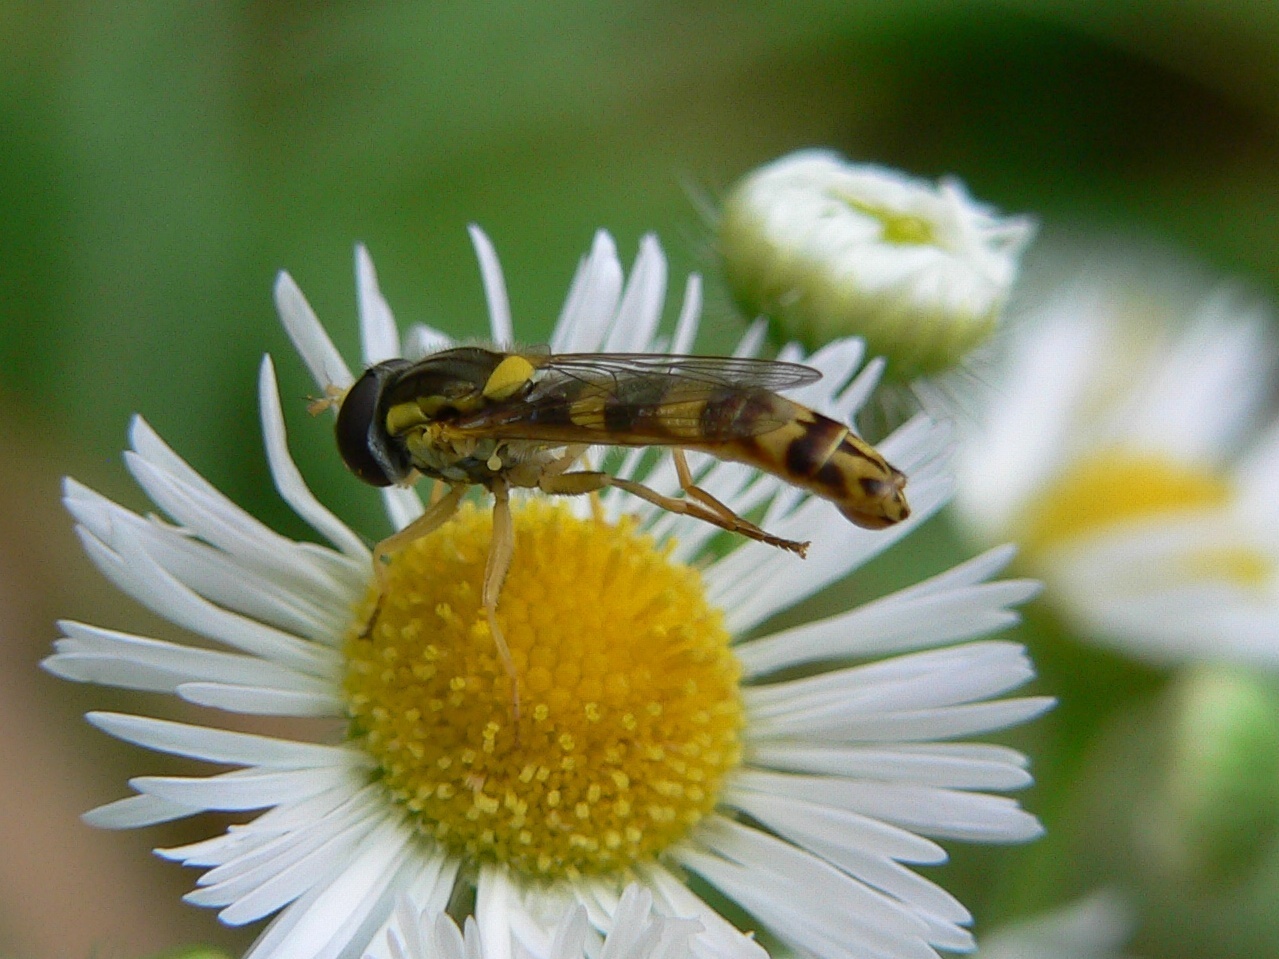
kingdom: Animalia
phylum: Arthropoda
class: Insecta
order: Diptera
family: Syrphidae
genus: Sphaerophoria
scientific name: Sphaerophoria scripta
